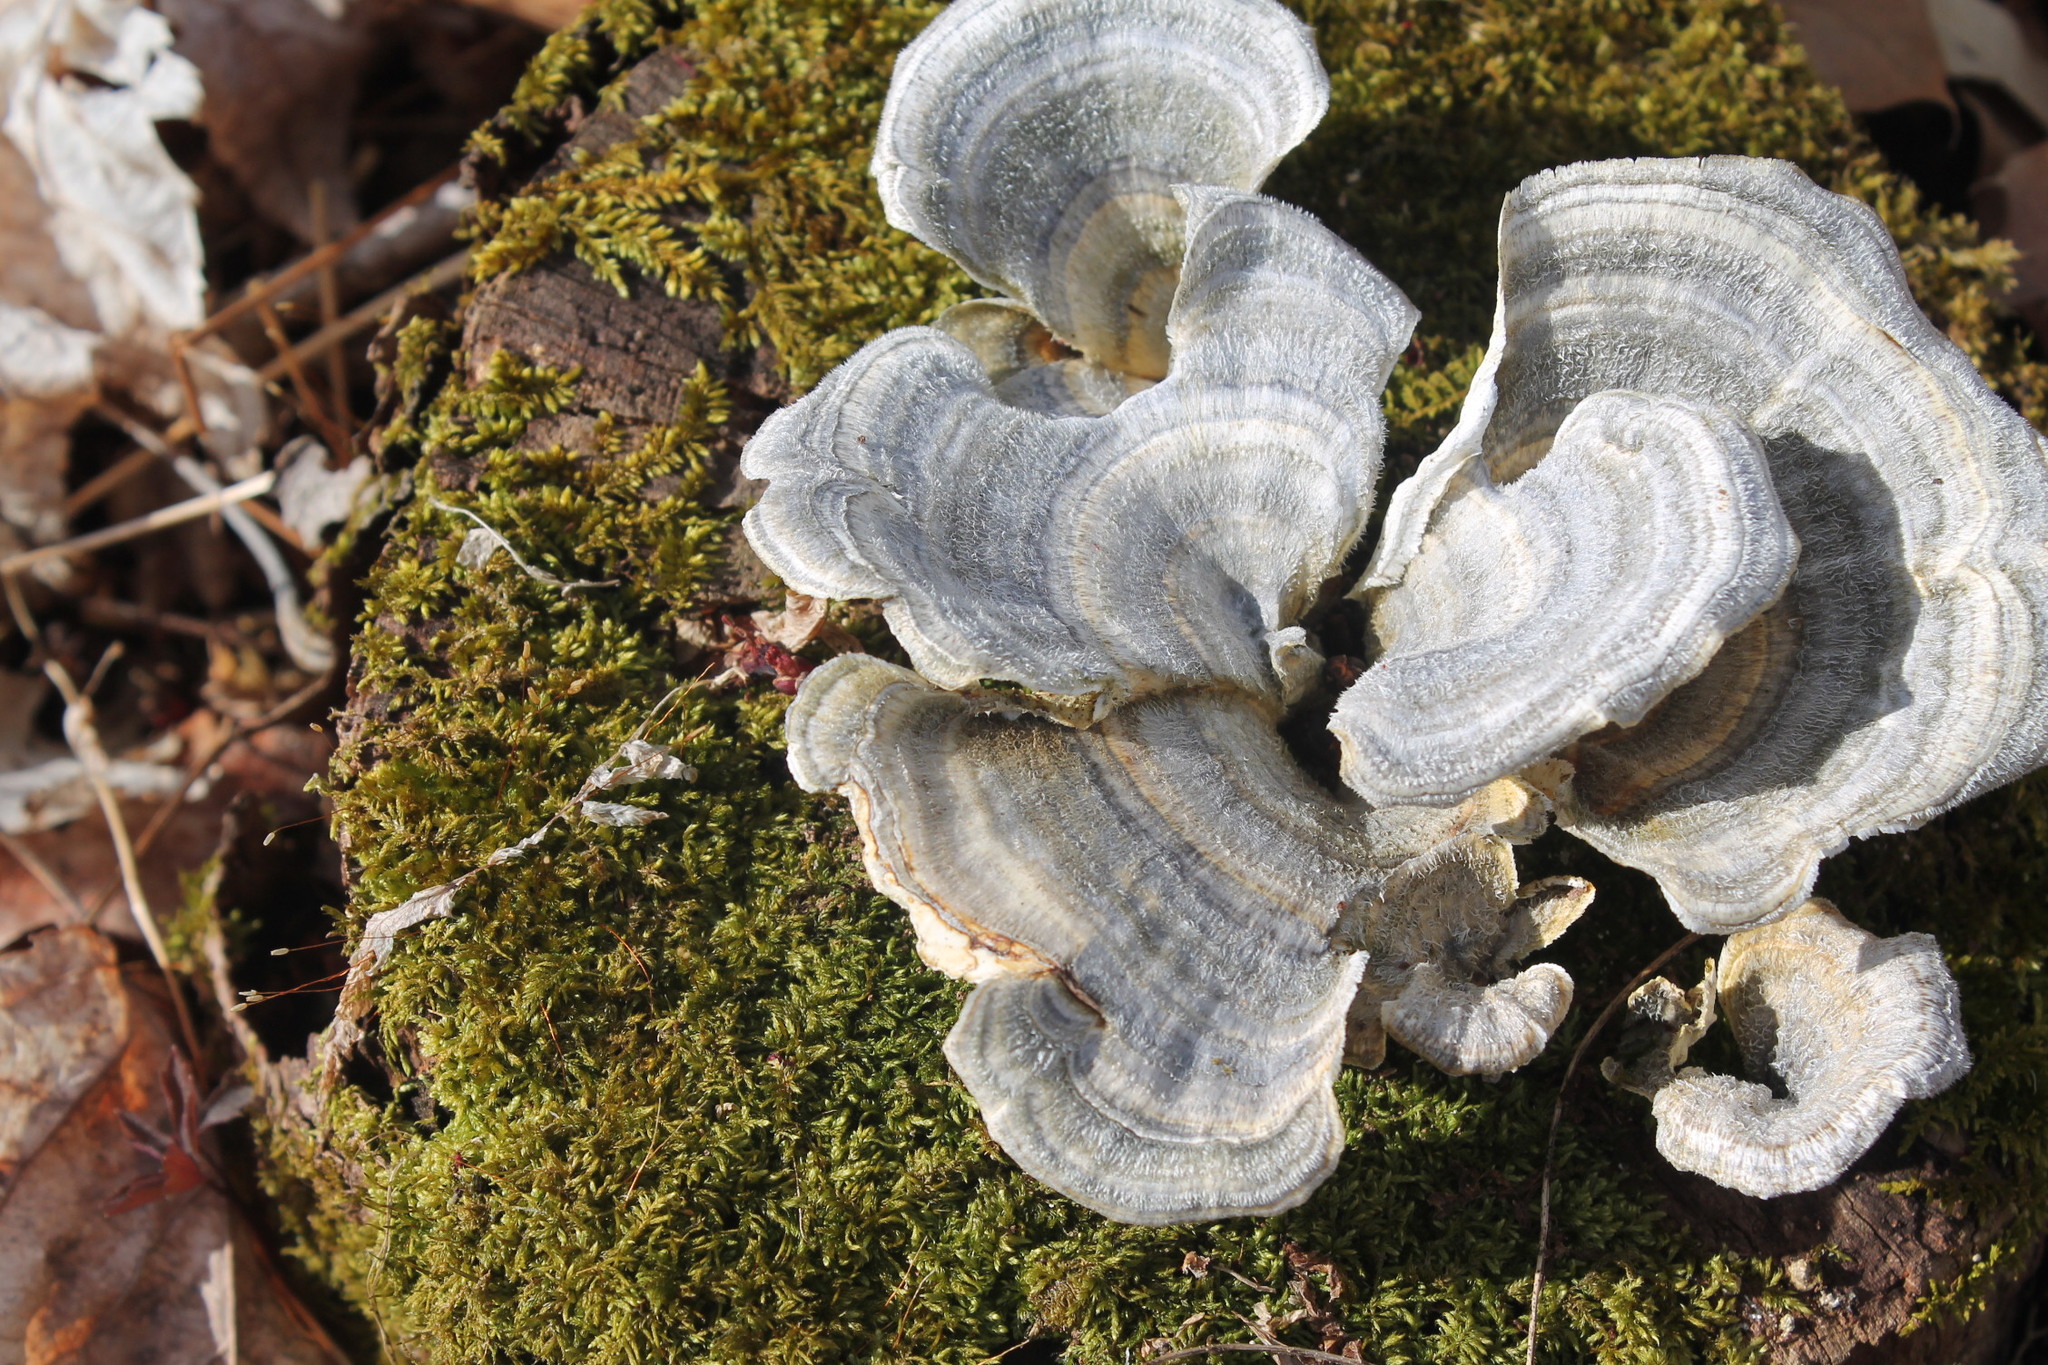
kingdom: Fungi
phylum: Basidiomycota
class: Agaricomycetes
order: Polyporales
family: Polyporaceae
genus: Trametes
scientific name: Trametes versicolor
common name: Turkeytail
